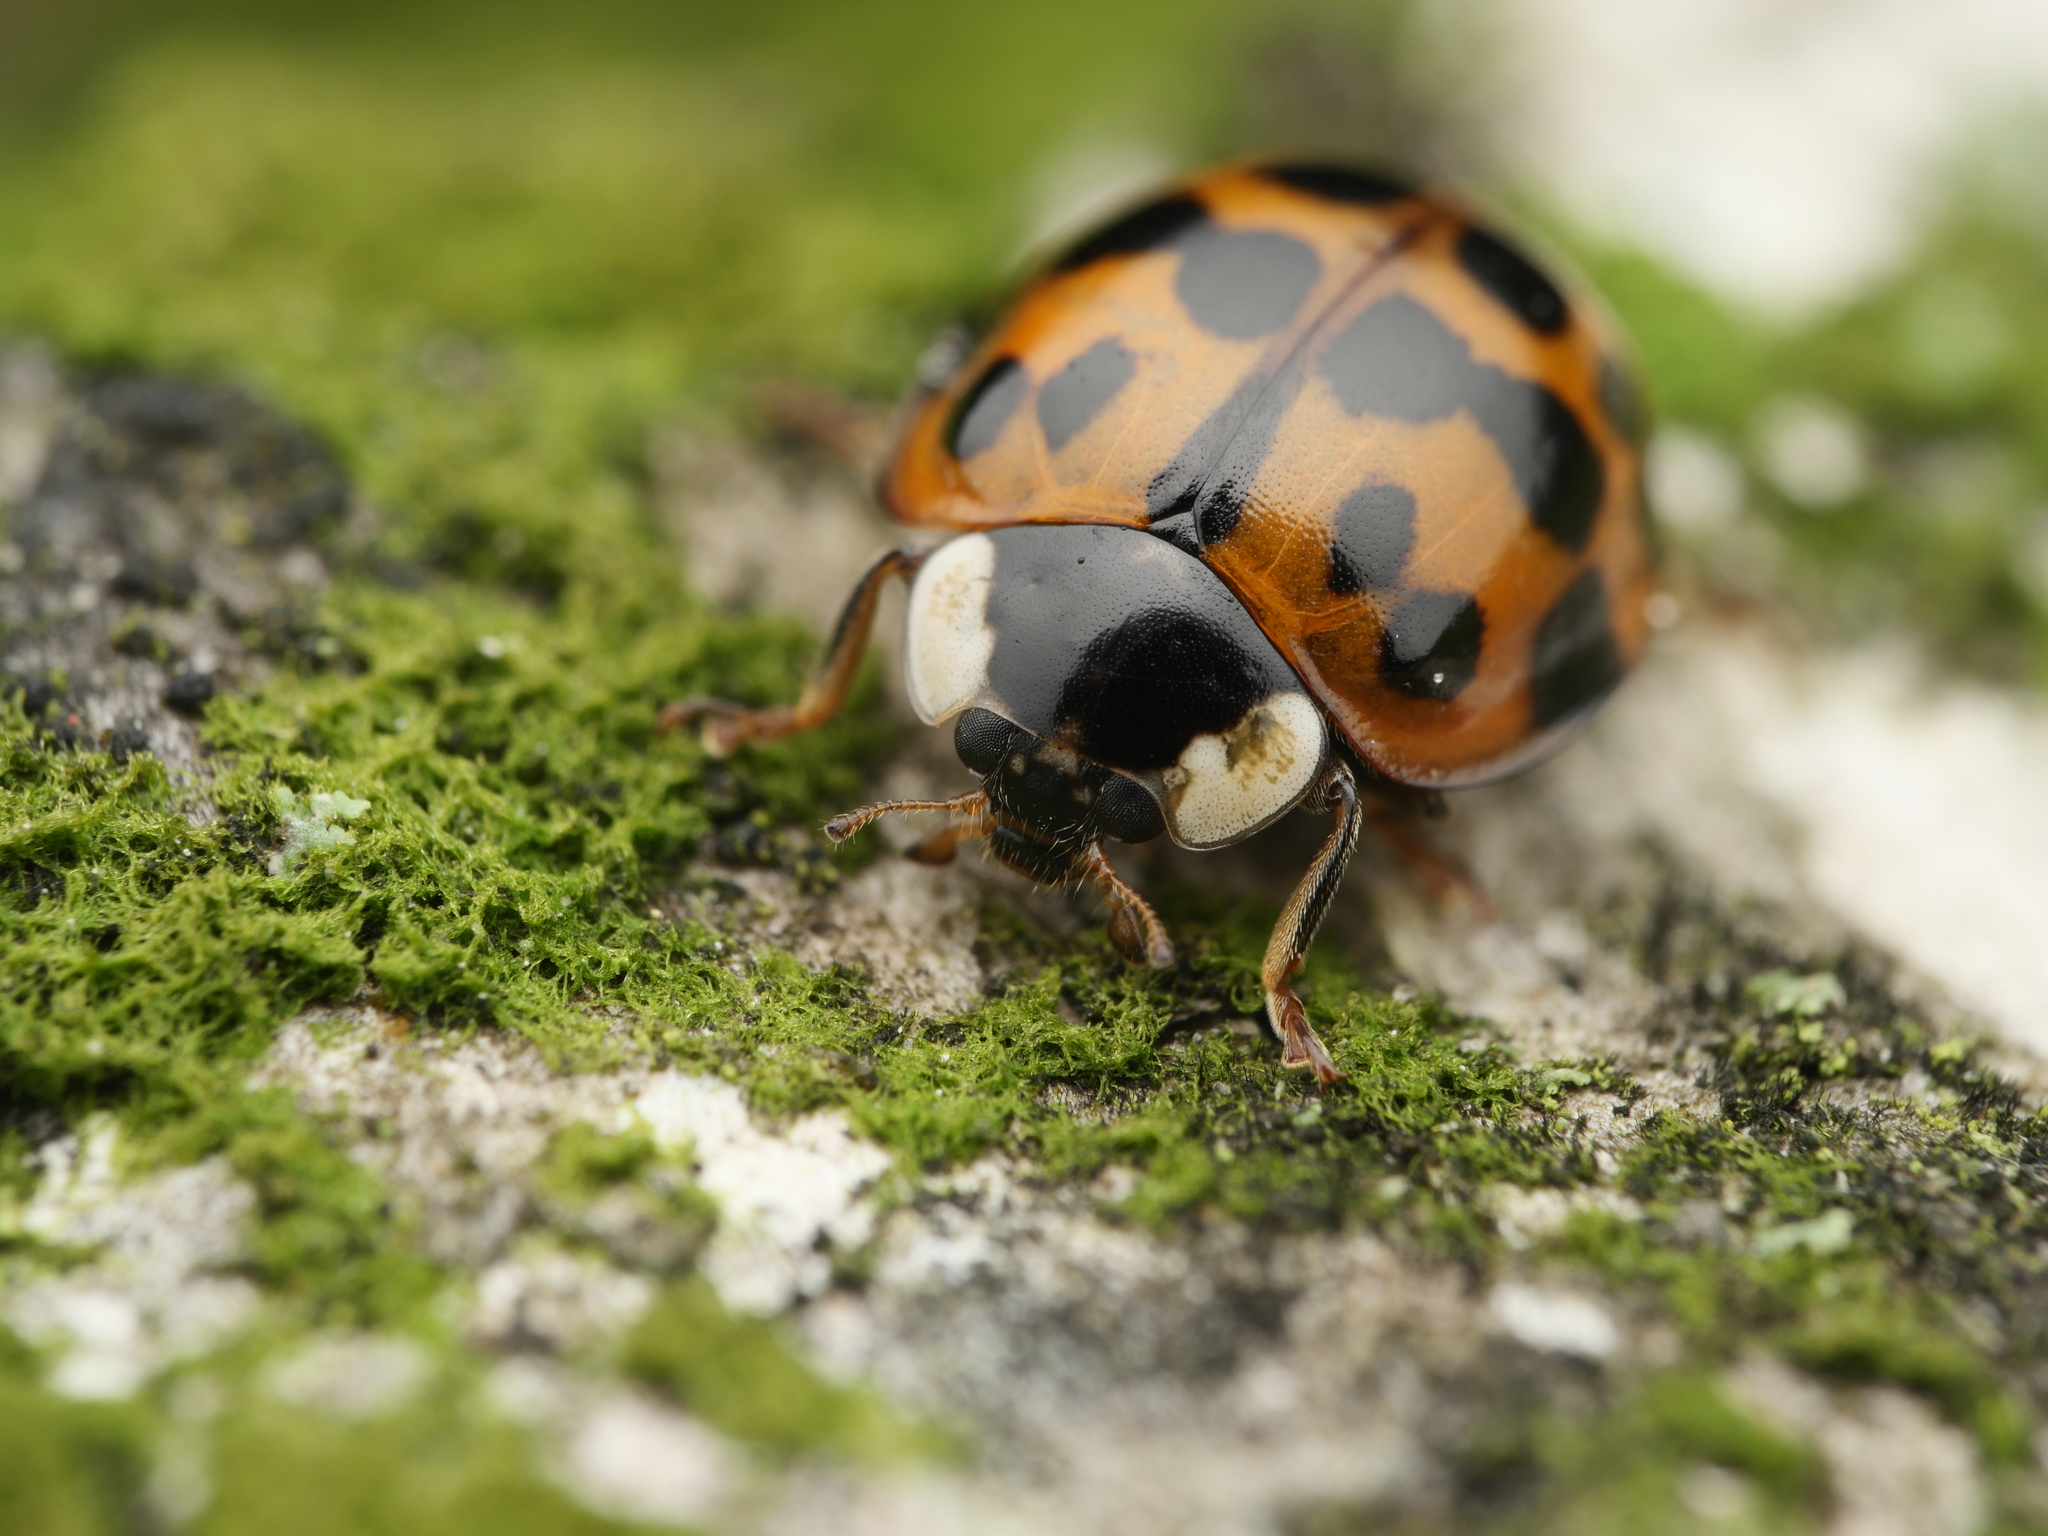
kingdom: Animalia
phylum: Arthropoda
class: Insecta
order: Coleoptera
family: Coccinellidae
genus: Harmonia
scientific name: Harmonia axyridis
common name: Harlequin ladybird
